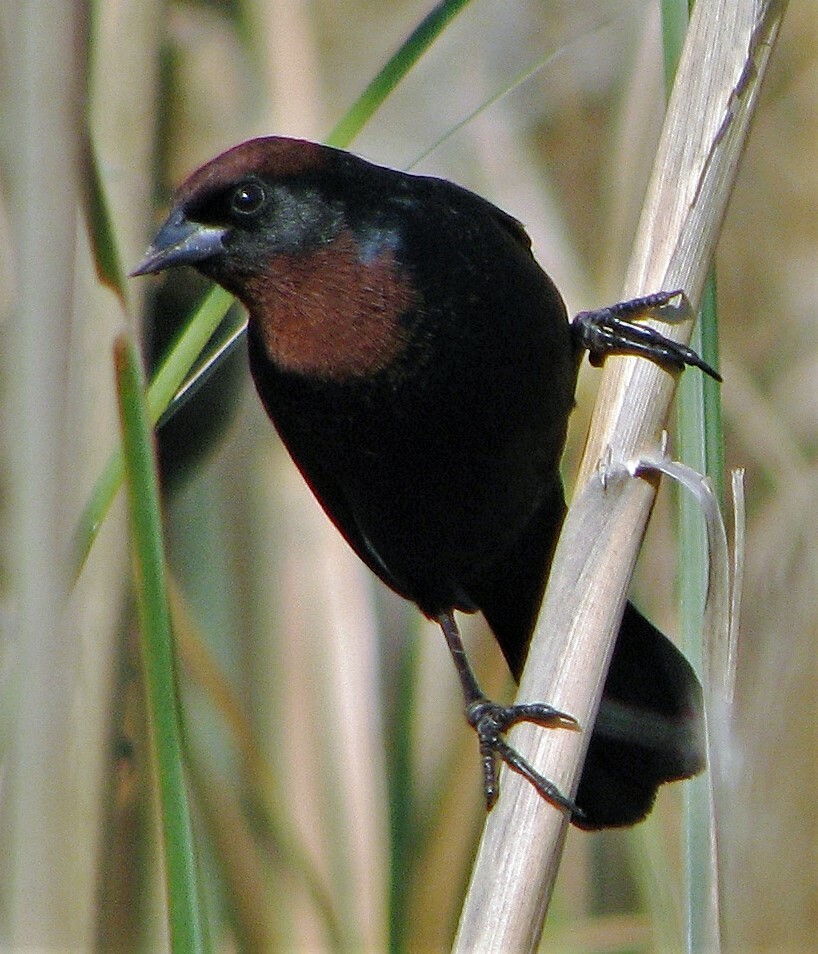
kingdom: Animalia
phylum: Chordata
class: Aves
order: Passeriformes
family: Icteridae
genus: Chrysomus
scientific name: Chrysomus ruficapillus
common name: Chestnut-capped blackbird
